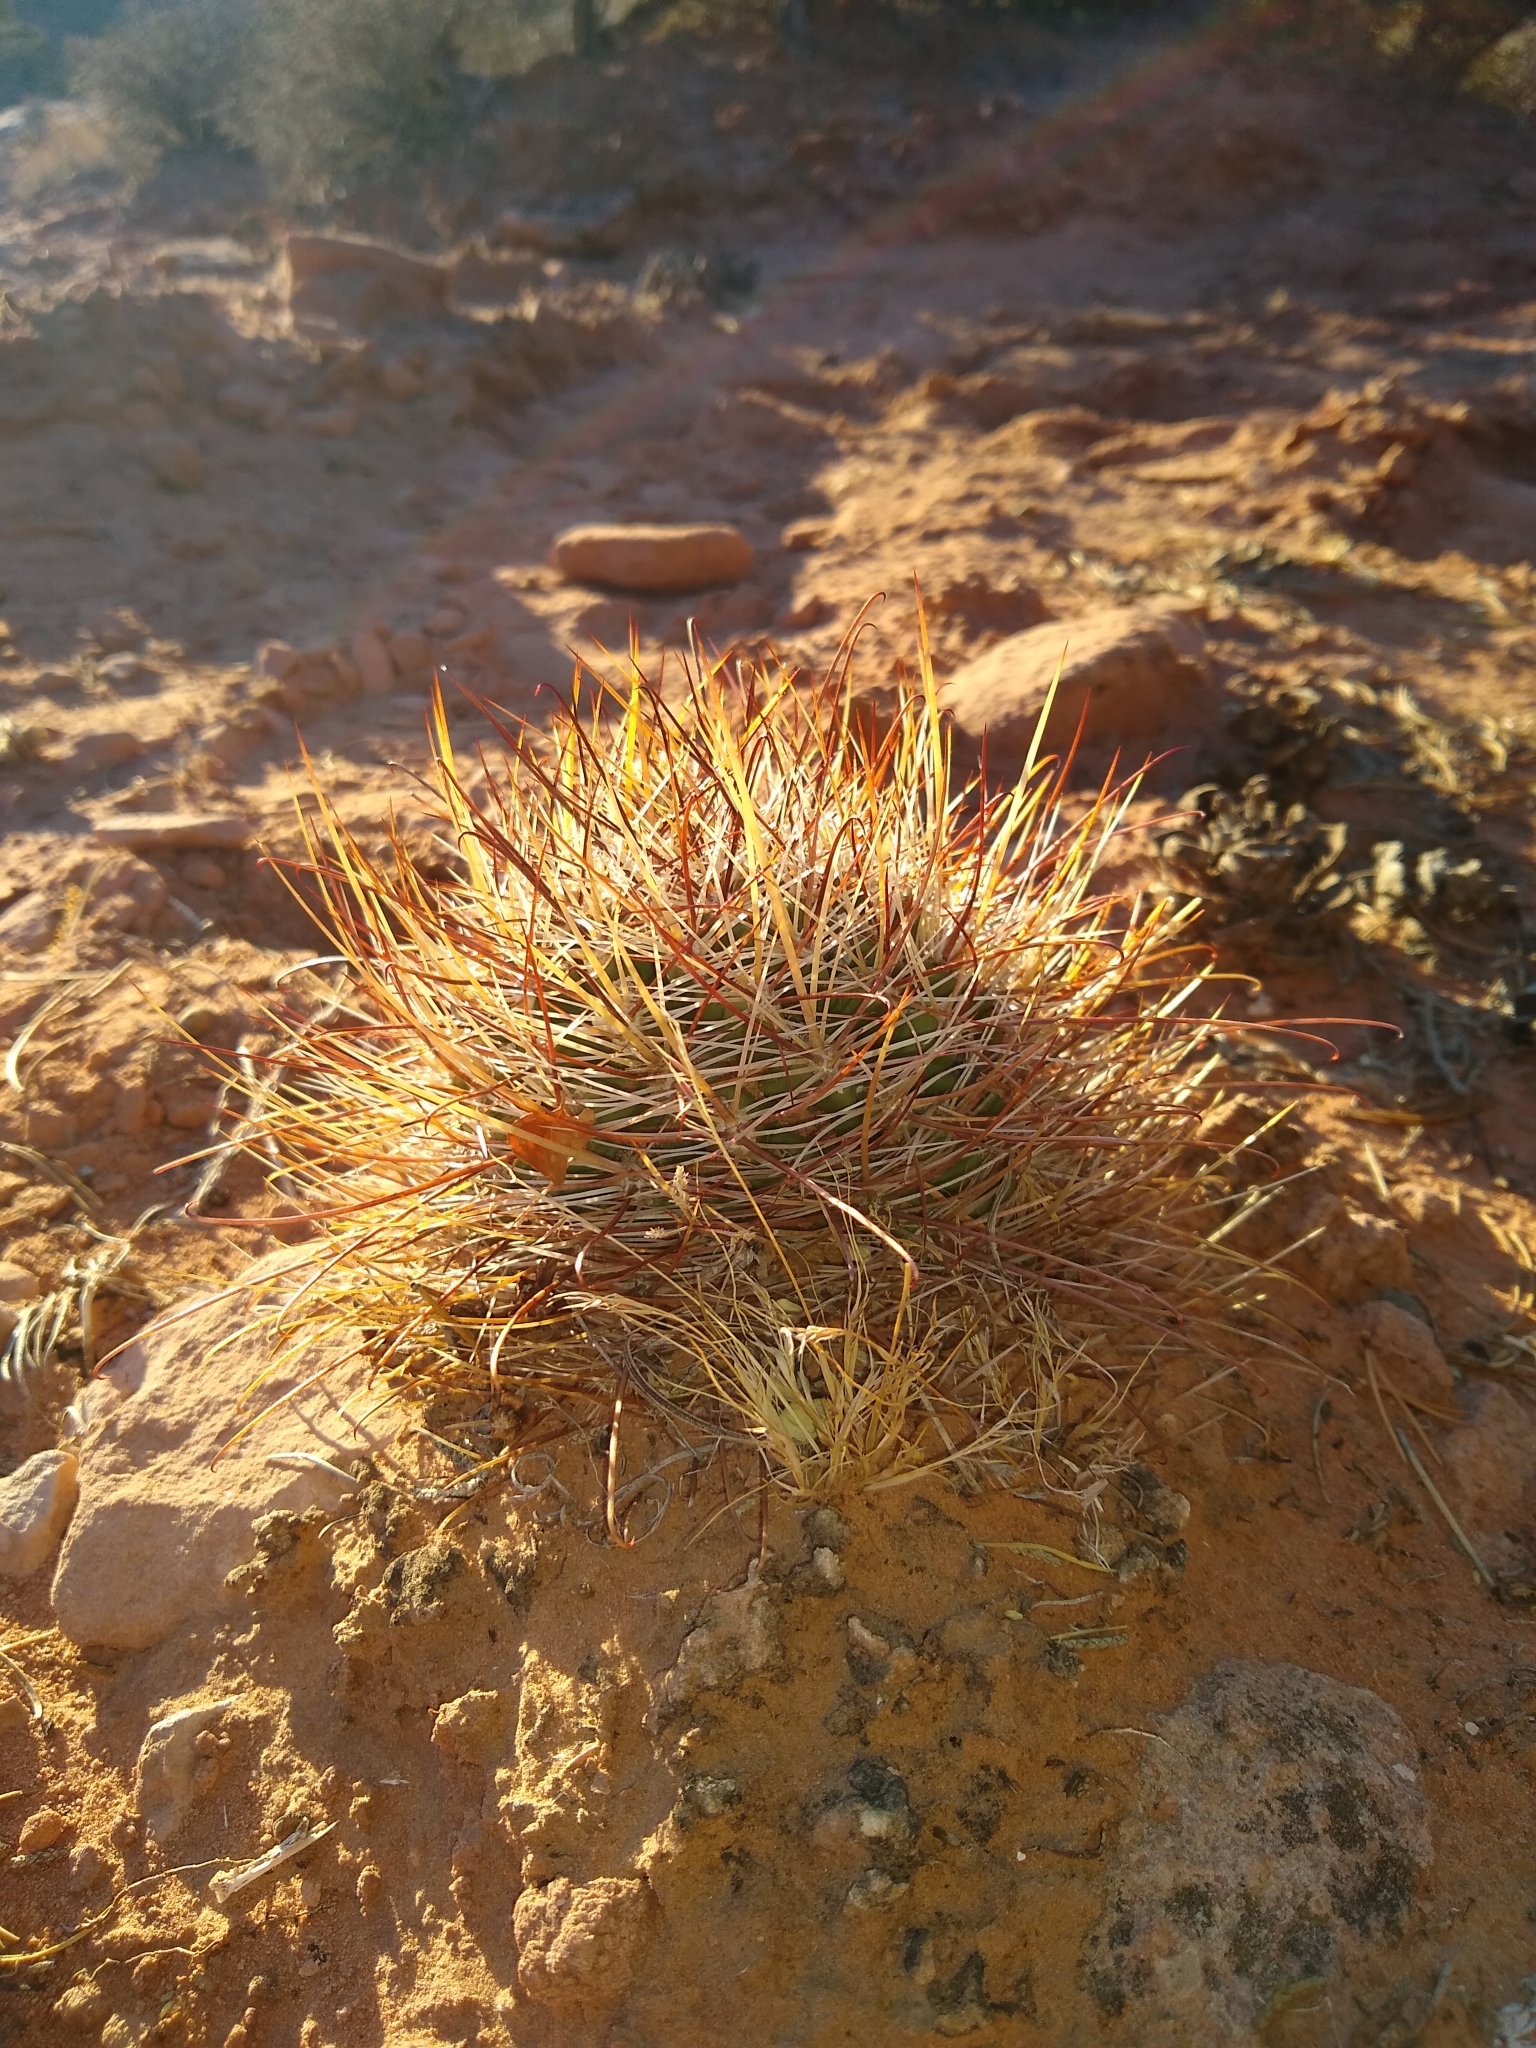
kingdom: Plantae
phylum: Tracheophyta
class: Magnoliopsida
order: Caryophyllales
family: Cactaceae
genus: Sclerocactus
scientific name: Sclerocactus parviflorus
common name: Small-flower fishhook cactus
